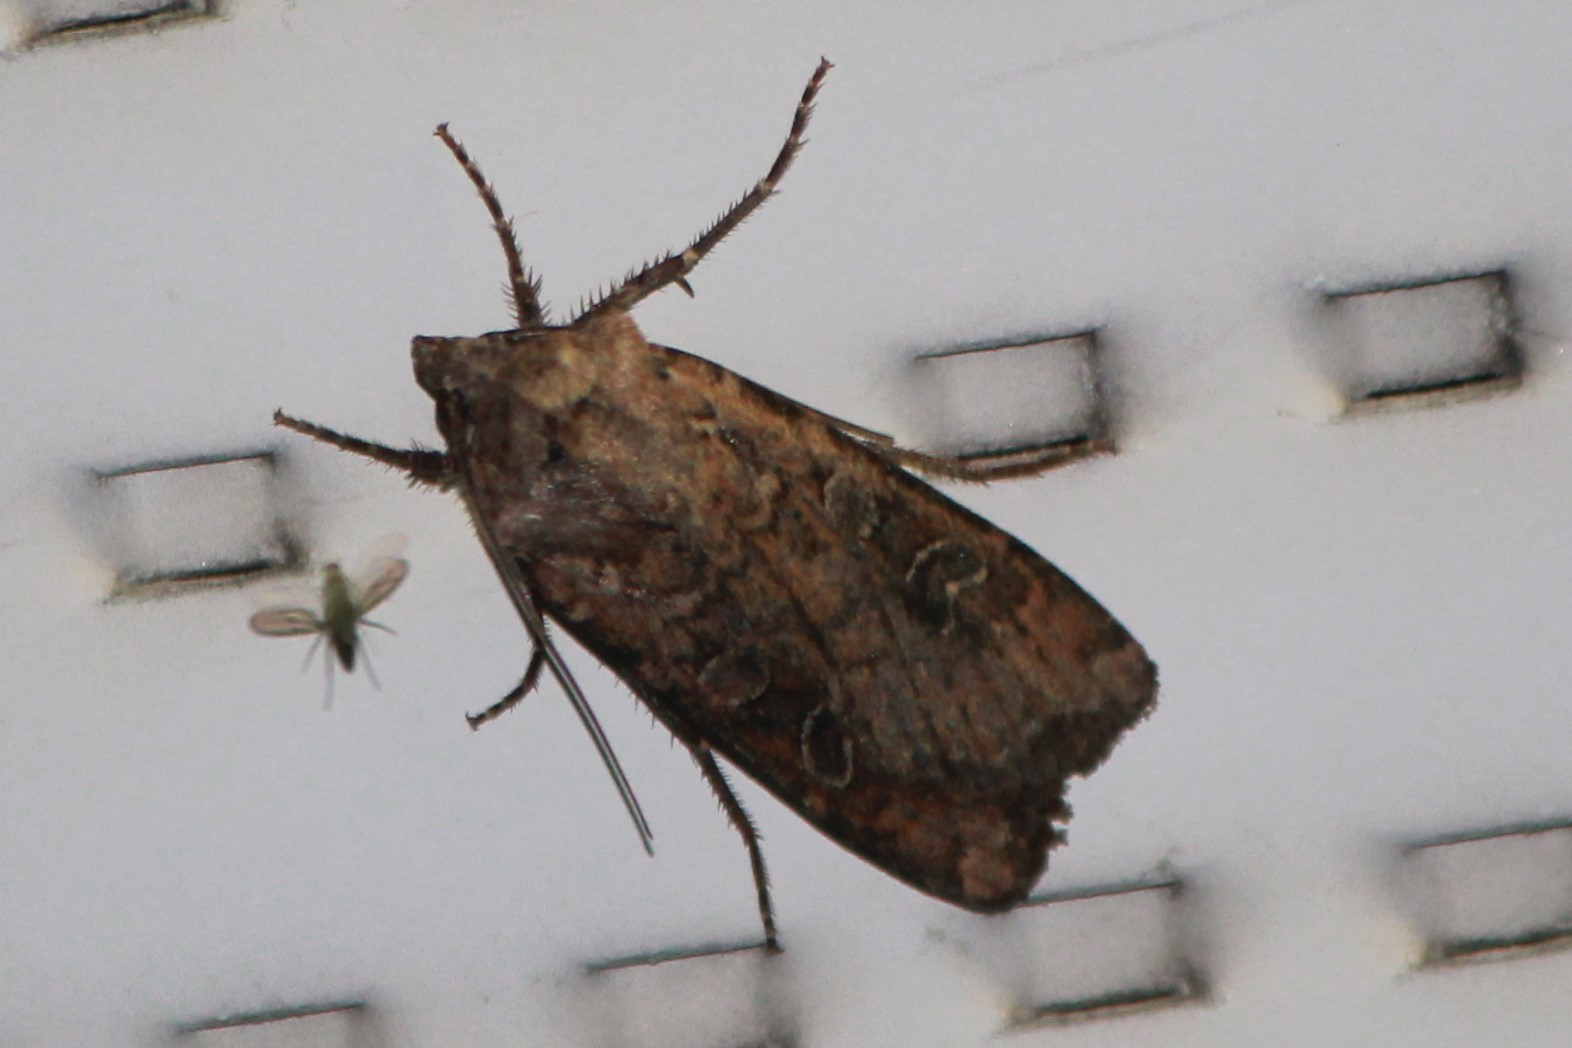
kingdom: Animalia
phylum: Arthropoda
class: Insecta
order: Lepidoptera
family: Noctuidae
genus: Peridroma
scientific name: Peridroma saucia
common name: Pearly underwing
